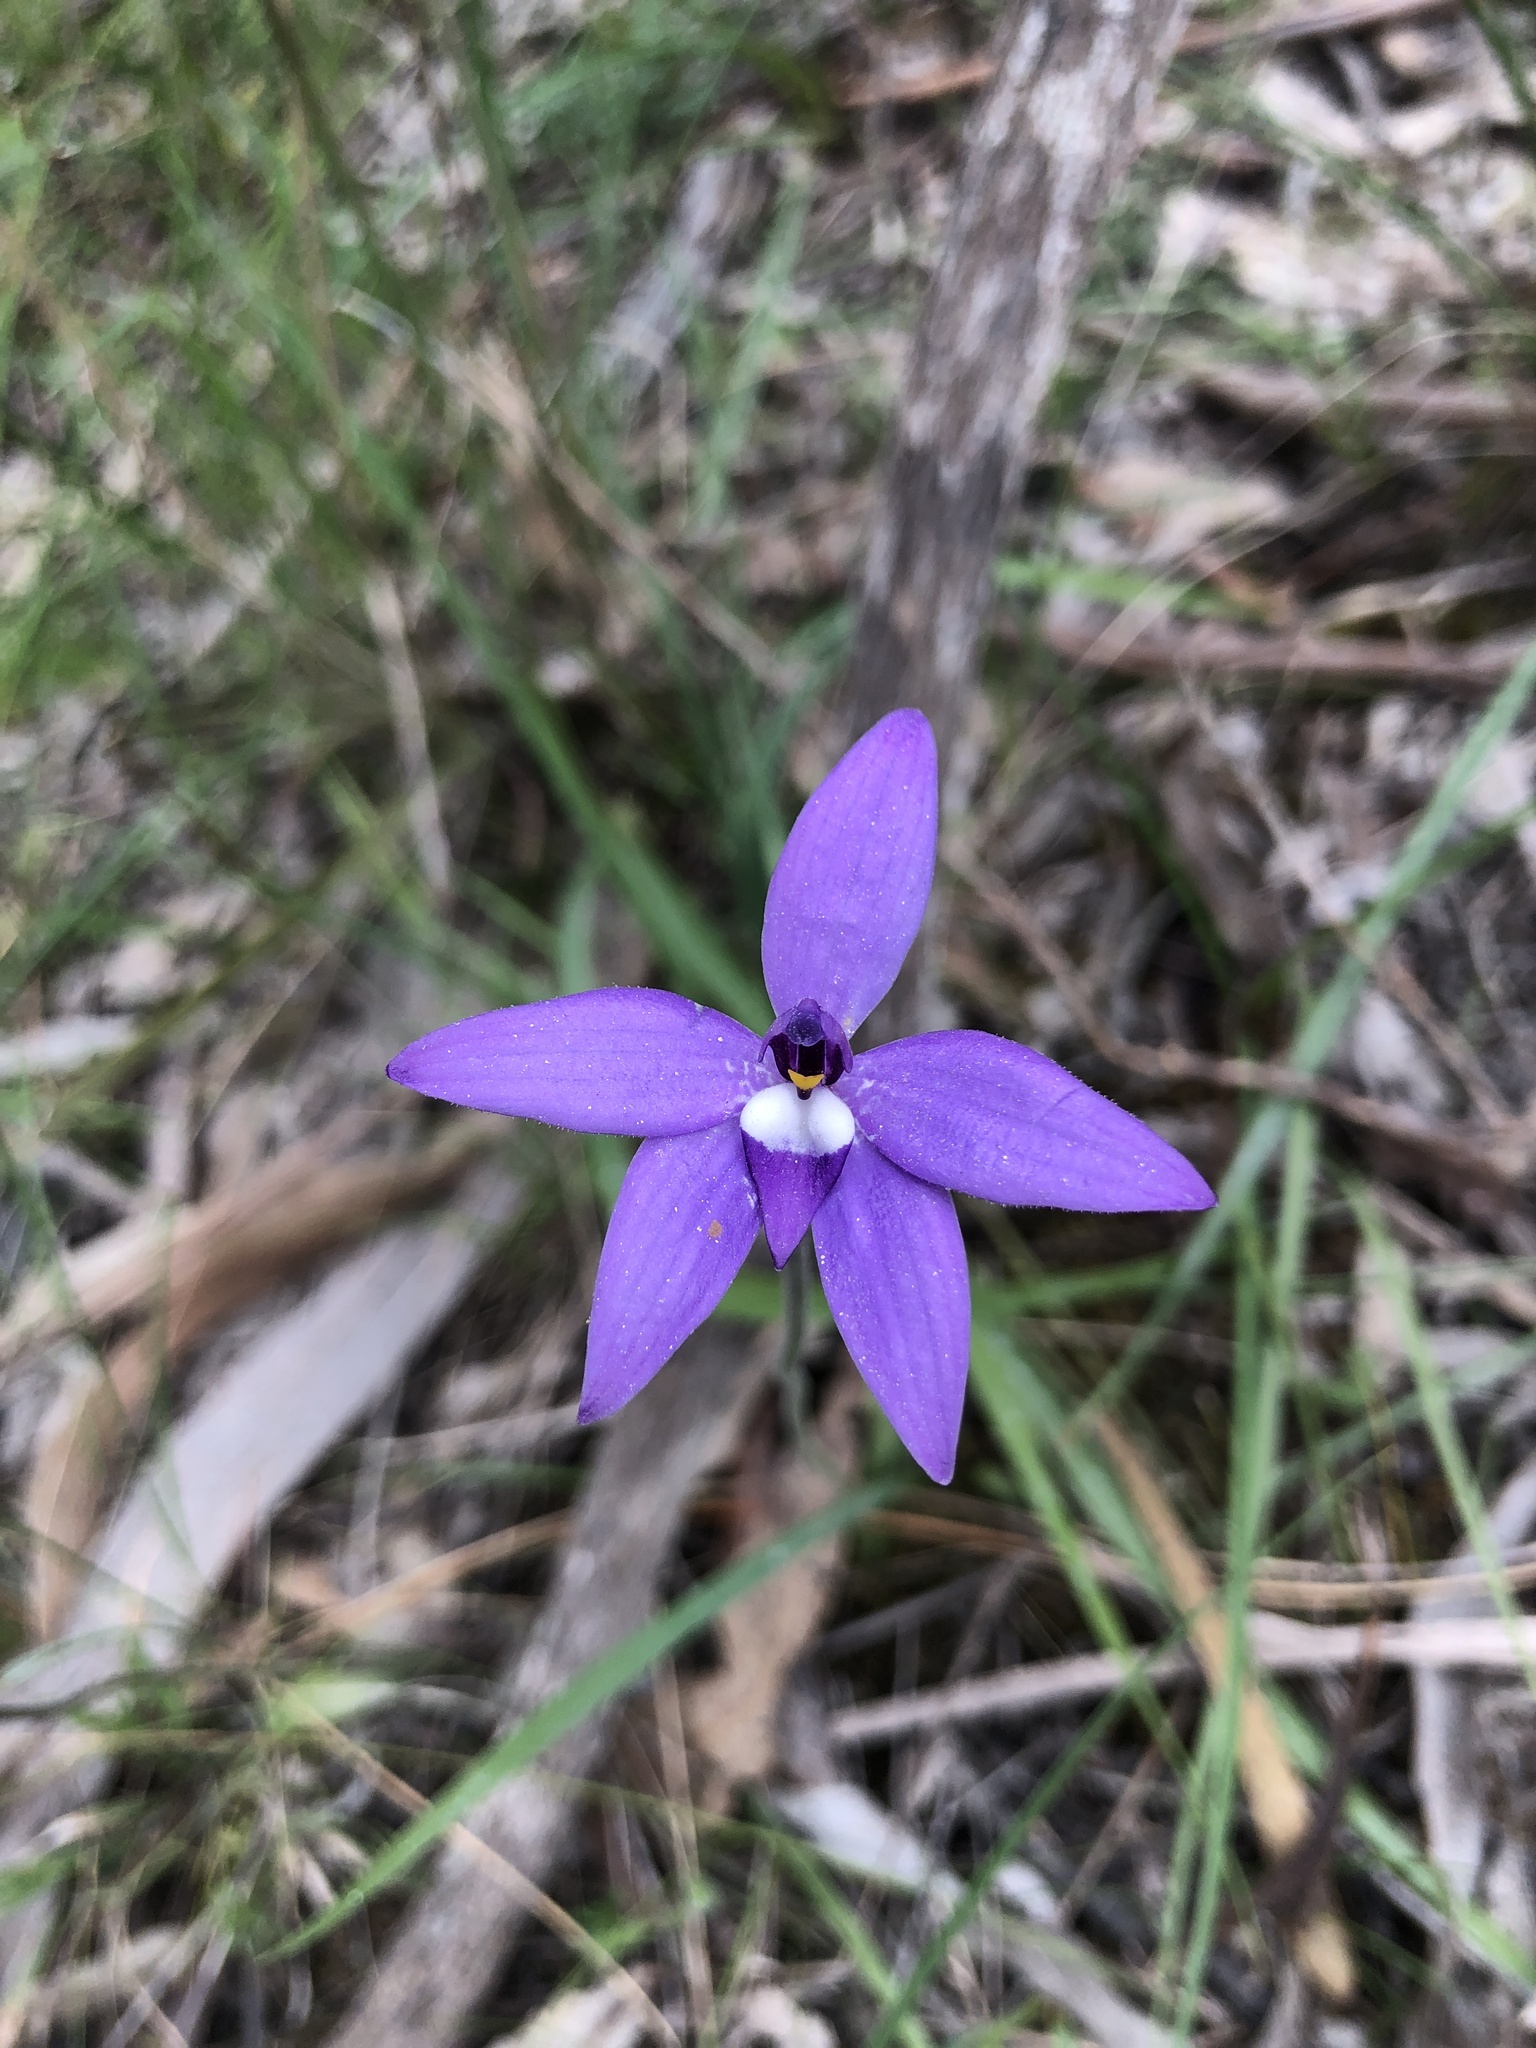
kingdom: Plantae
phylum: Tracheophyta
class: Liliopsida
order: Asparagales
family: Orchidaceae
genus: Caladenia
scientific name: Caladenia major
